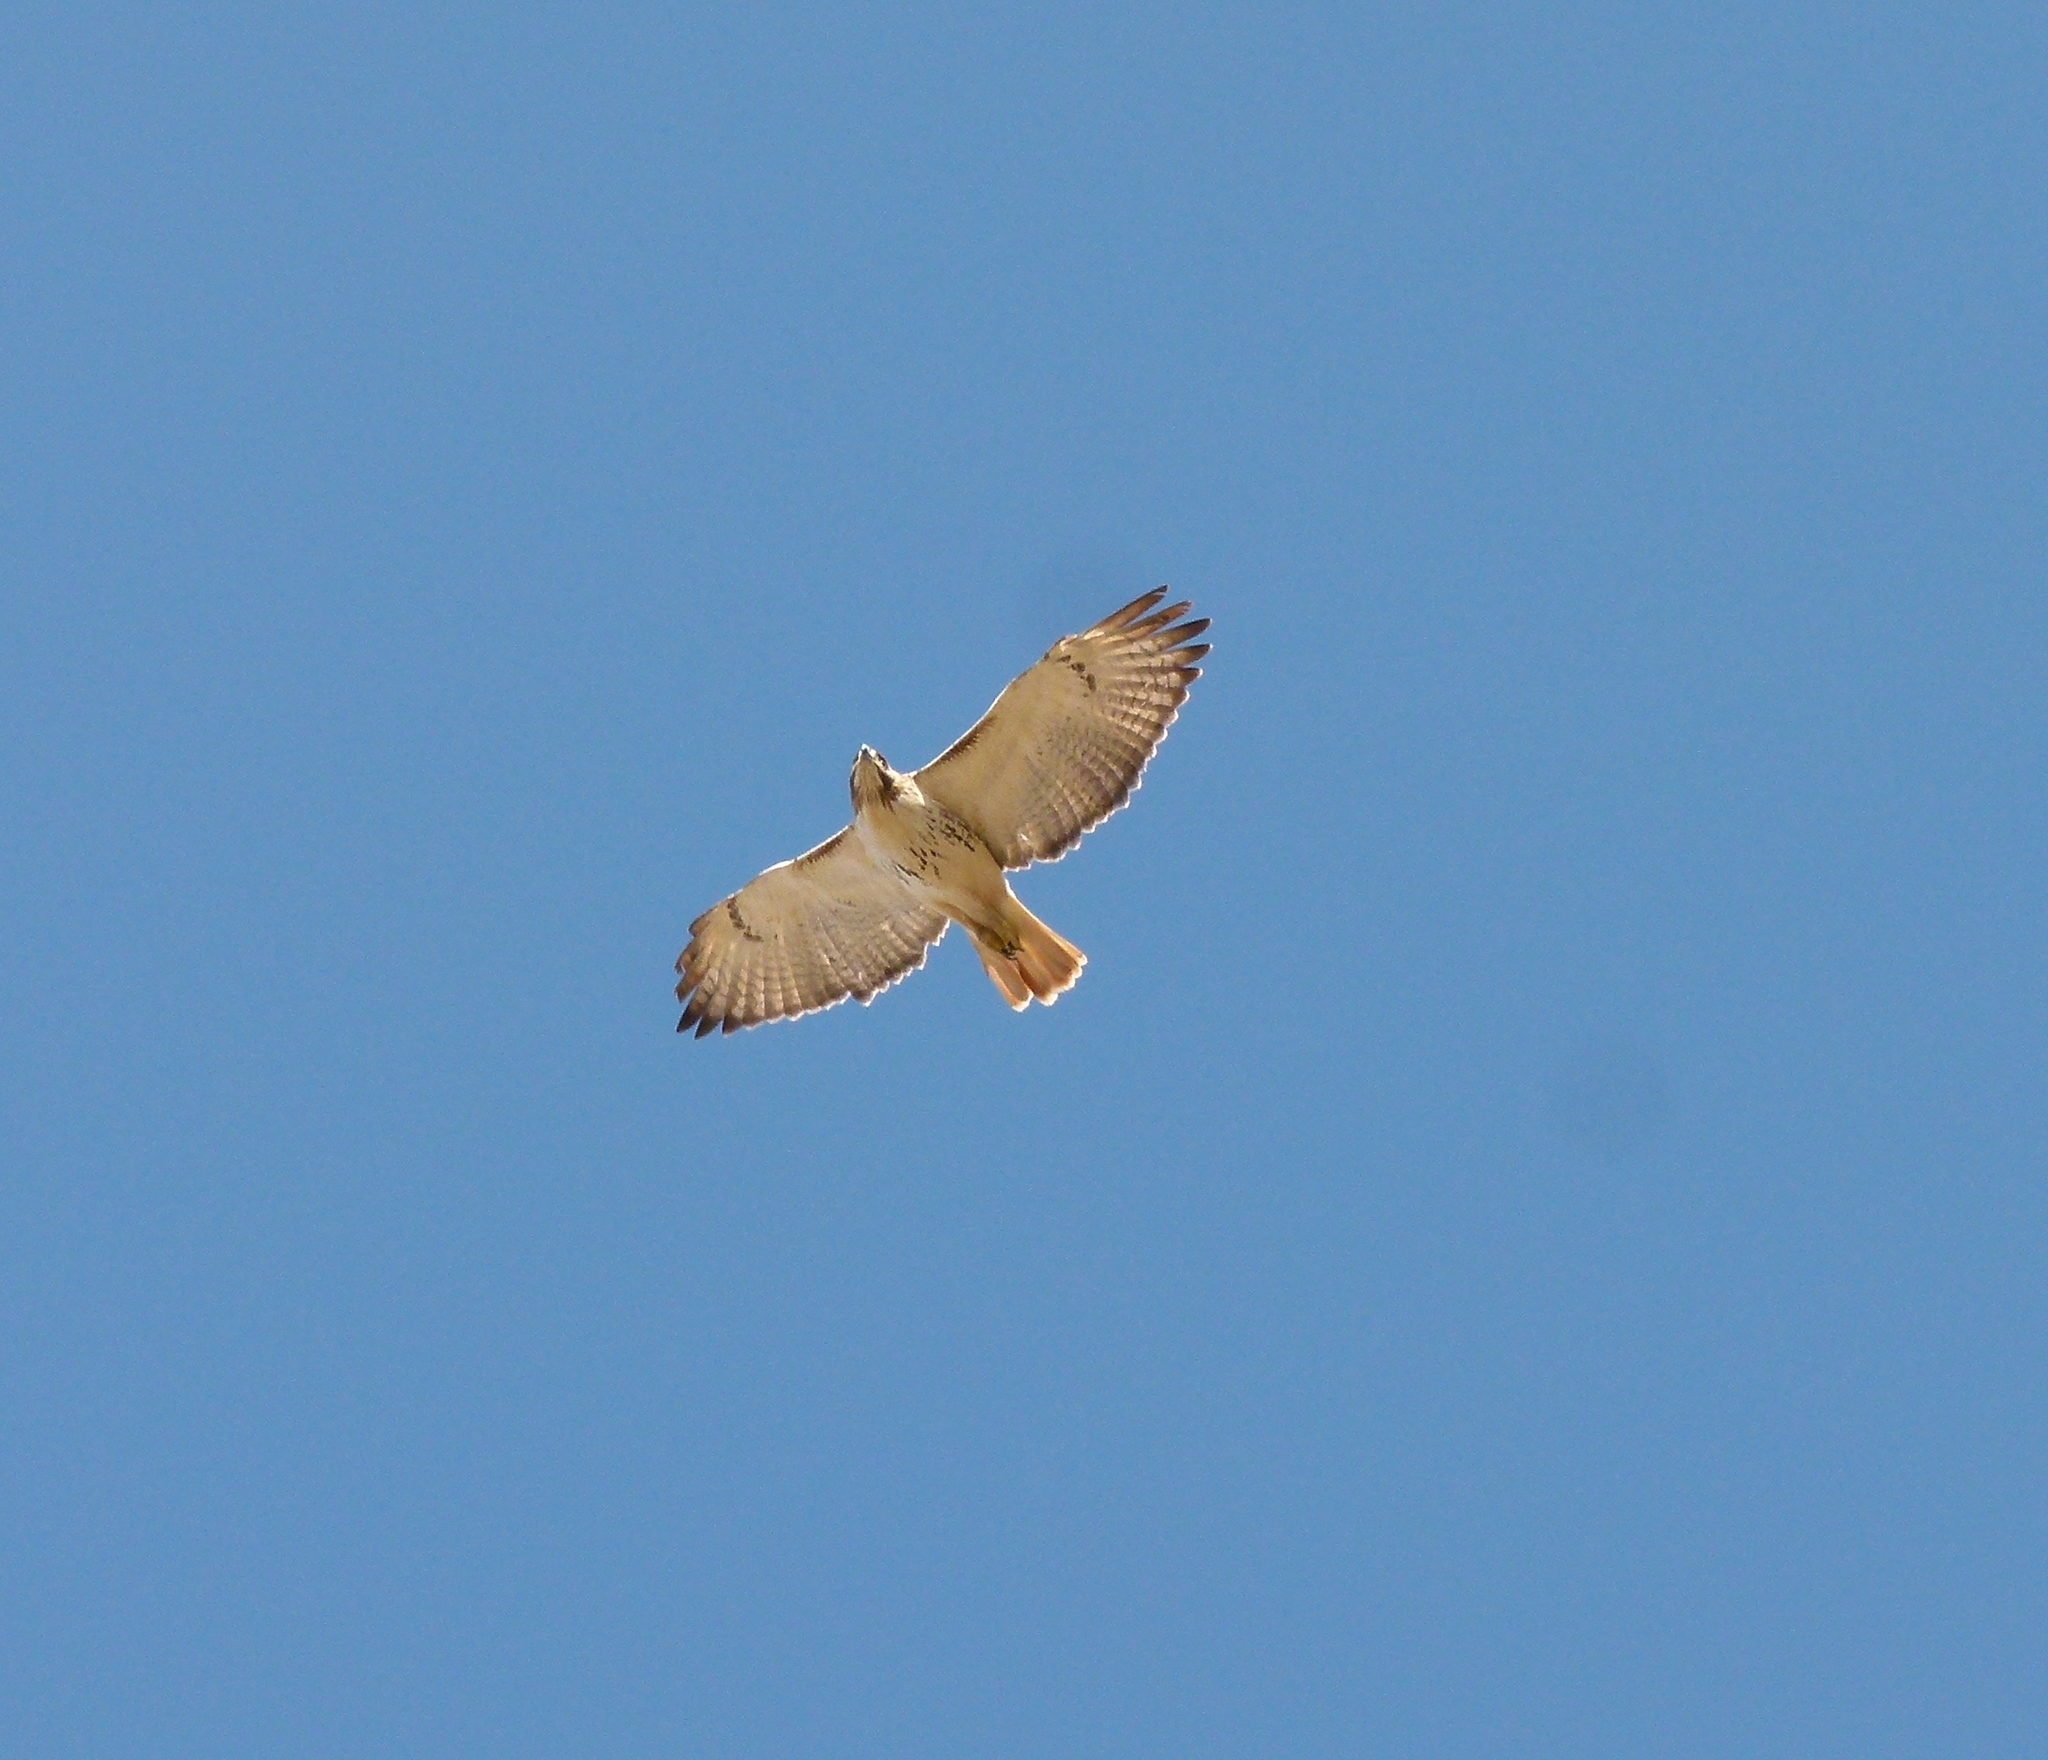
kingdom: Animalia
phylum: Chordata
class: Aves
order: Accipitriformes
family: Accipitridae
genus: Buteo
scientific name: Buteo jamaicensis
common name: Red-tailed hawk
